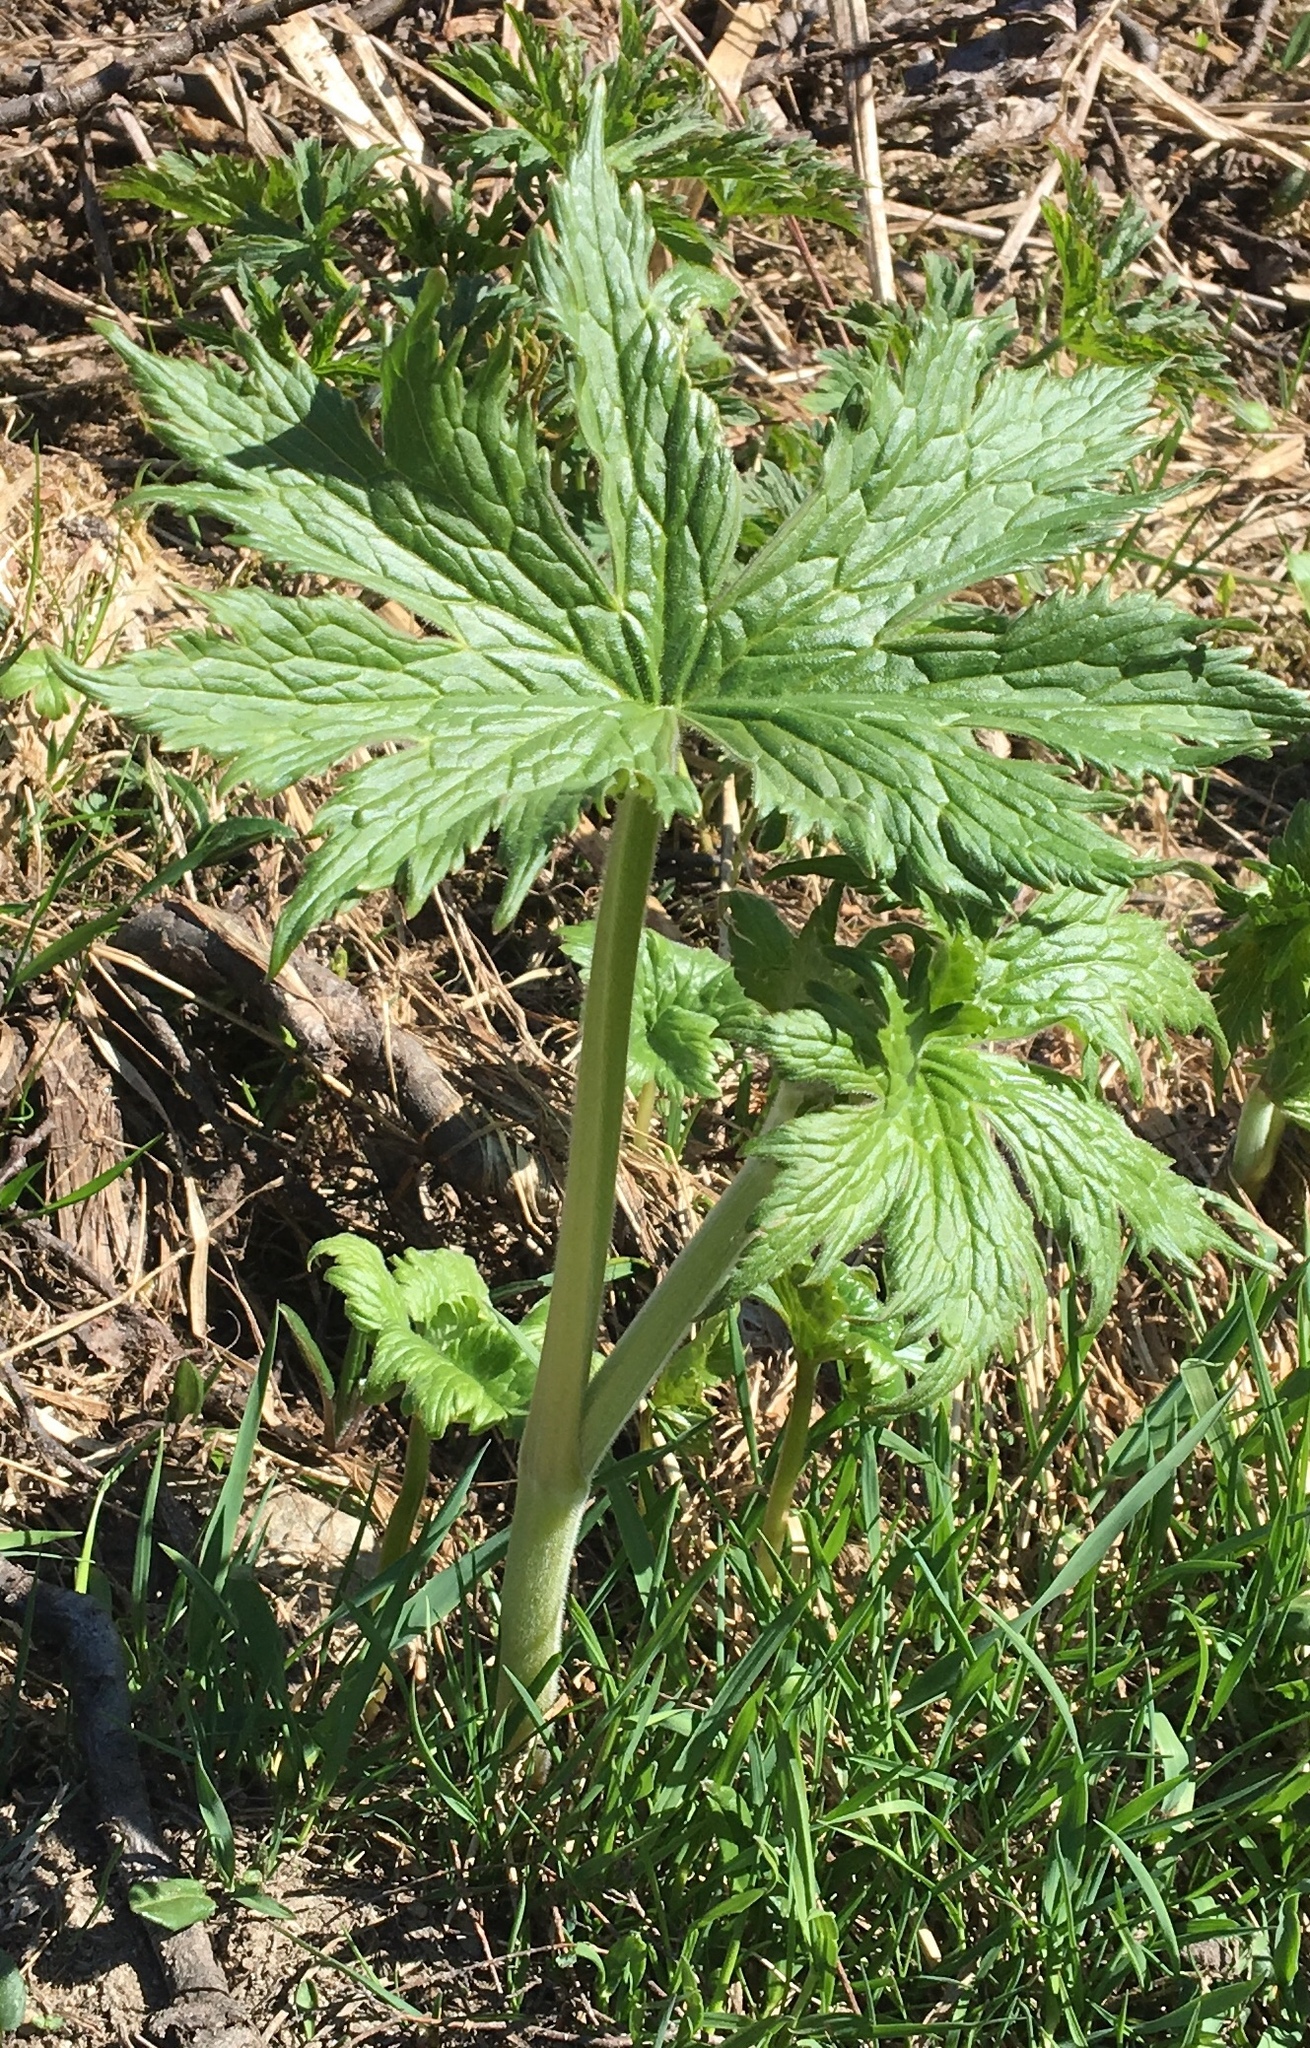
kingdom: Plantae
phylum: Tracheophyta
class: Magnoliopsida
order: Ranunculales
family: Ranunculaceae
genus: Aconitum
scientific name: Aconitum septentrionale
